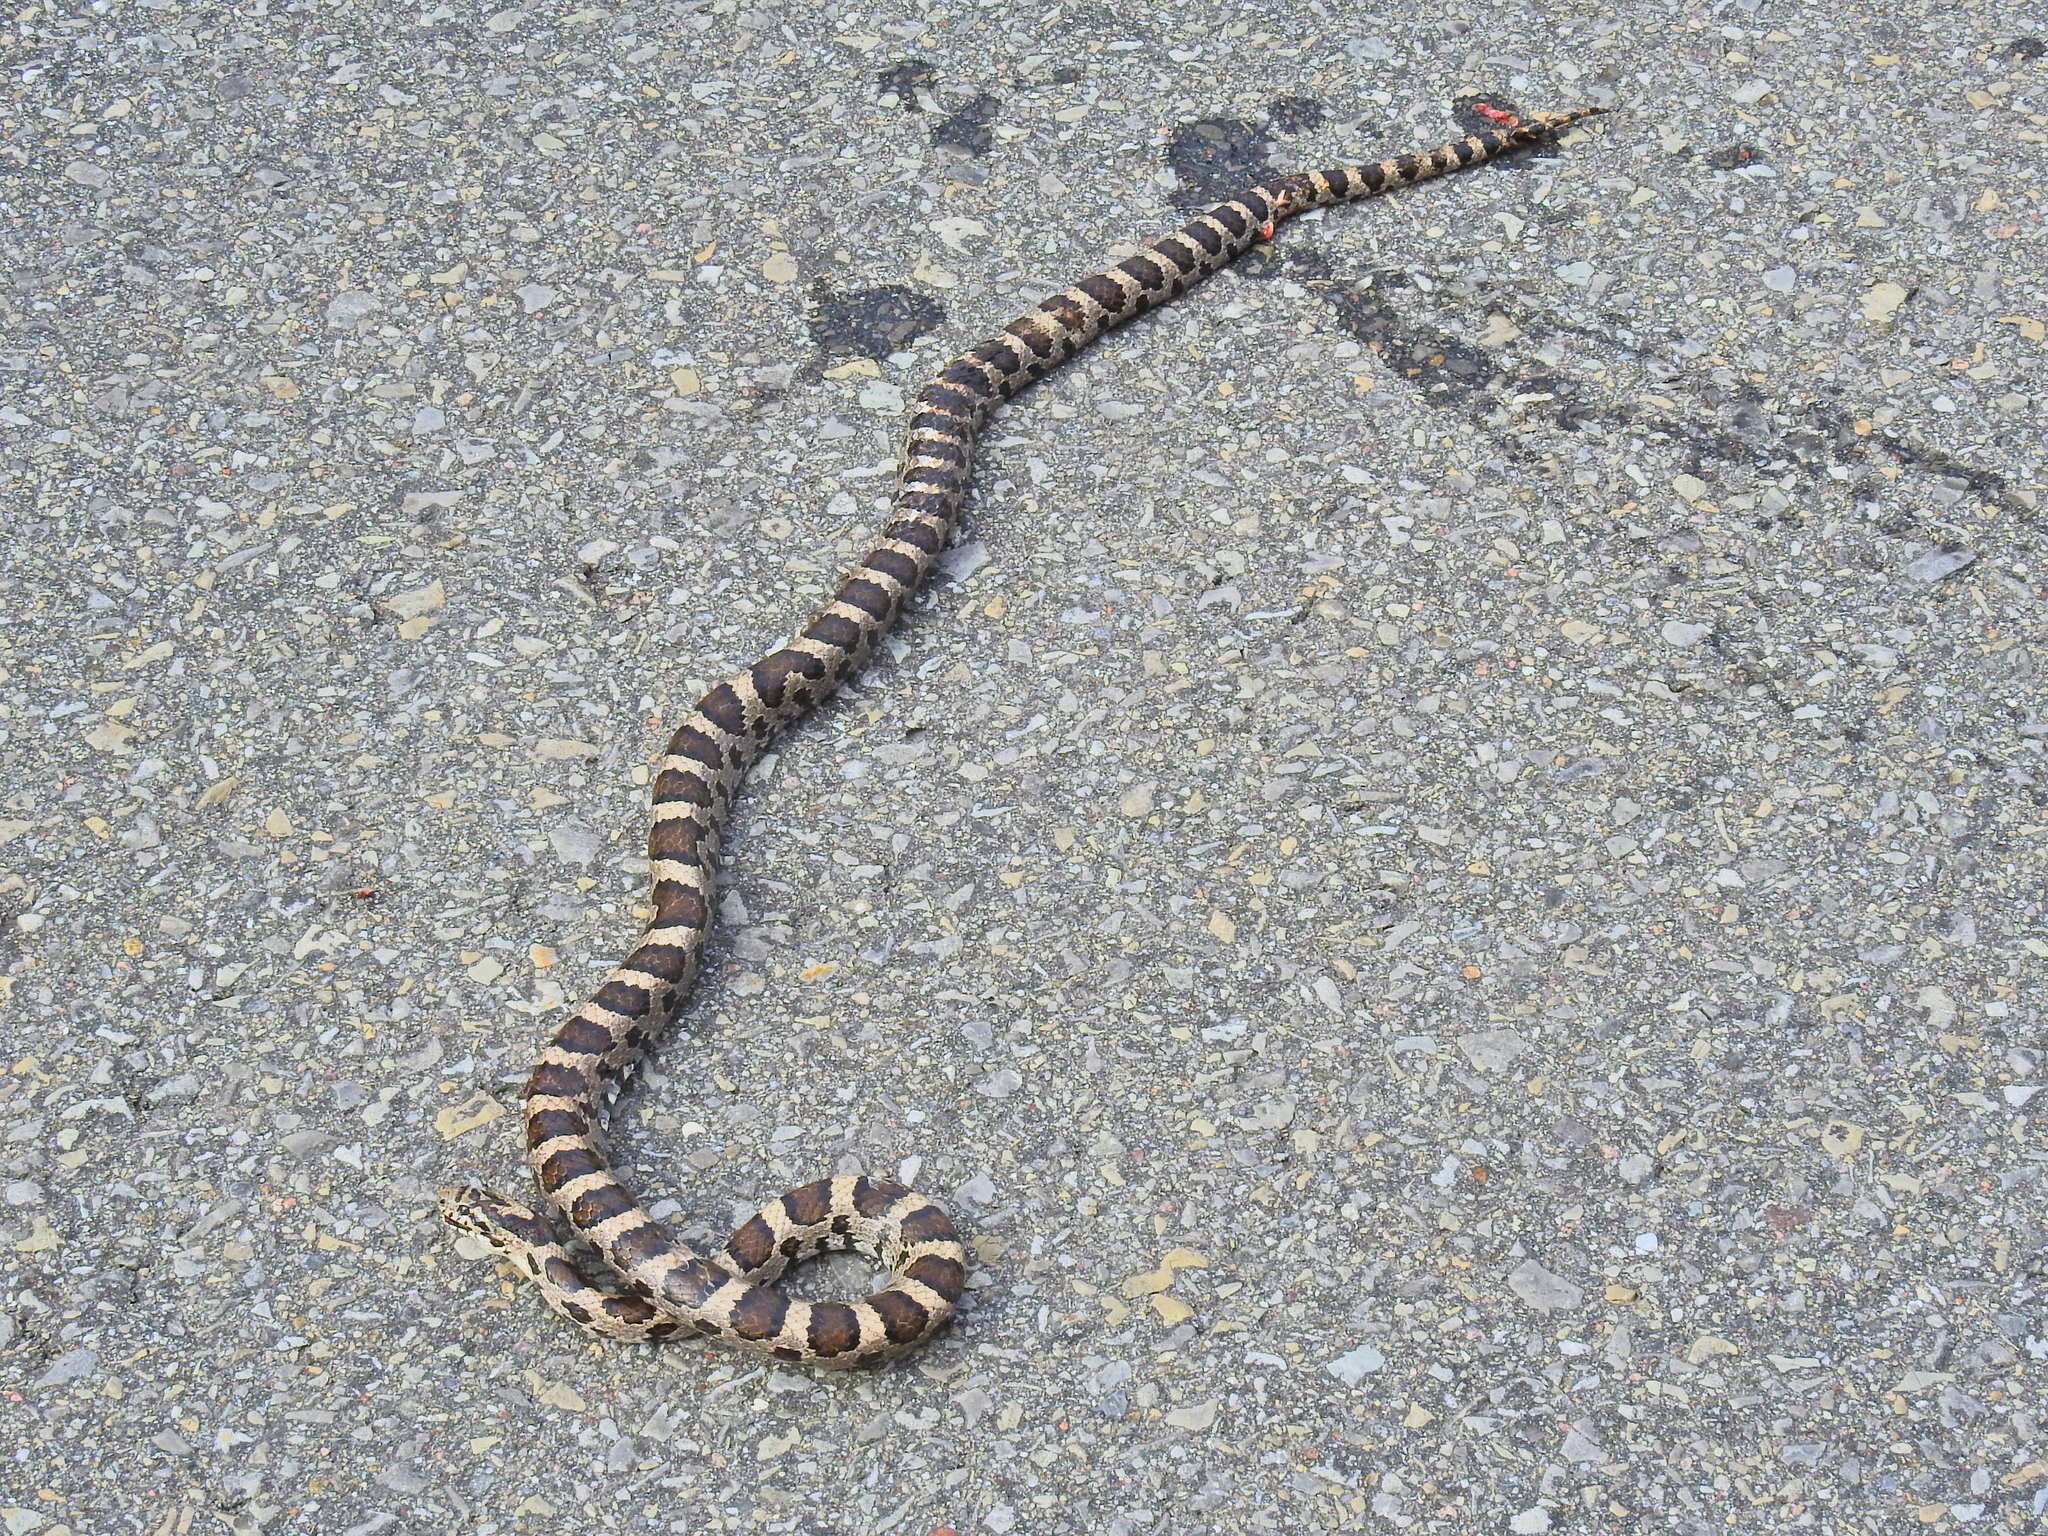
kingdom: Animalia
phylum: Chordata
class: Squamata
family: Colubridae
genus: Lampropeltis
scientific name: Lampropeltis triangulum
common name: Eastern milksnake
